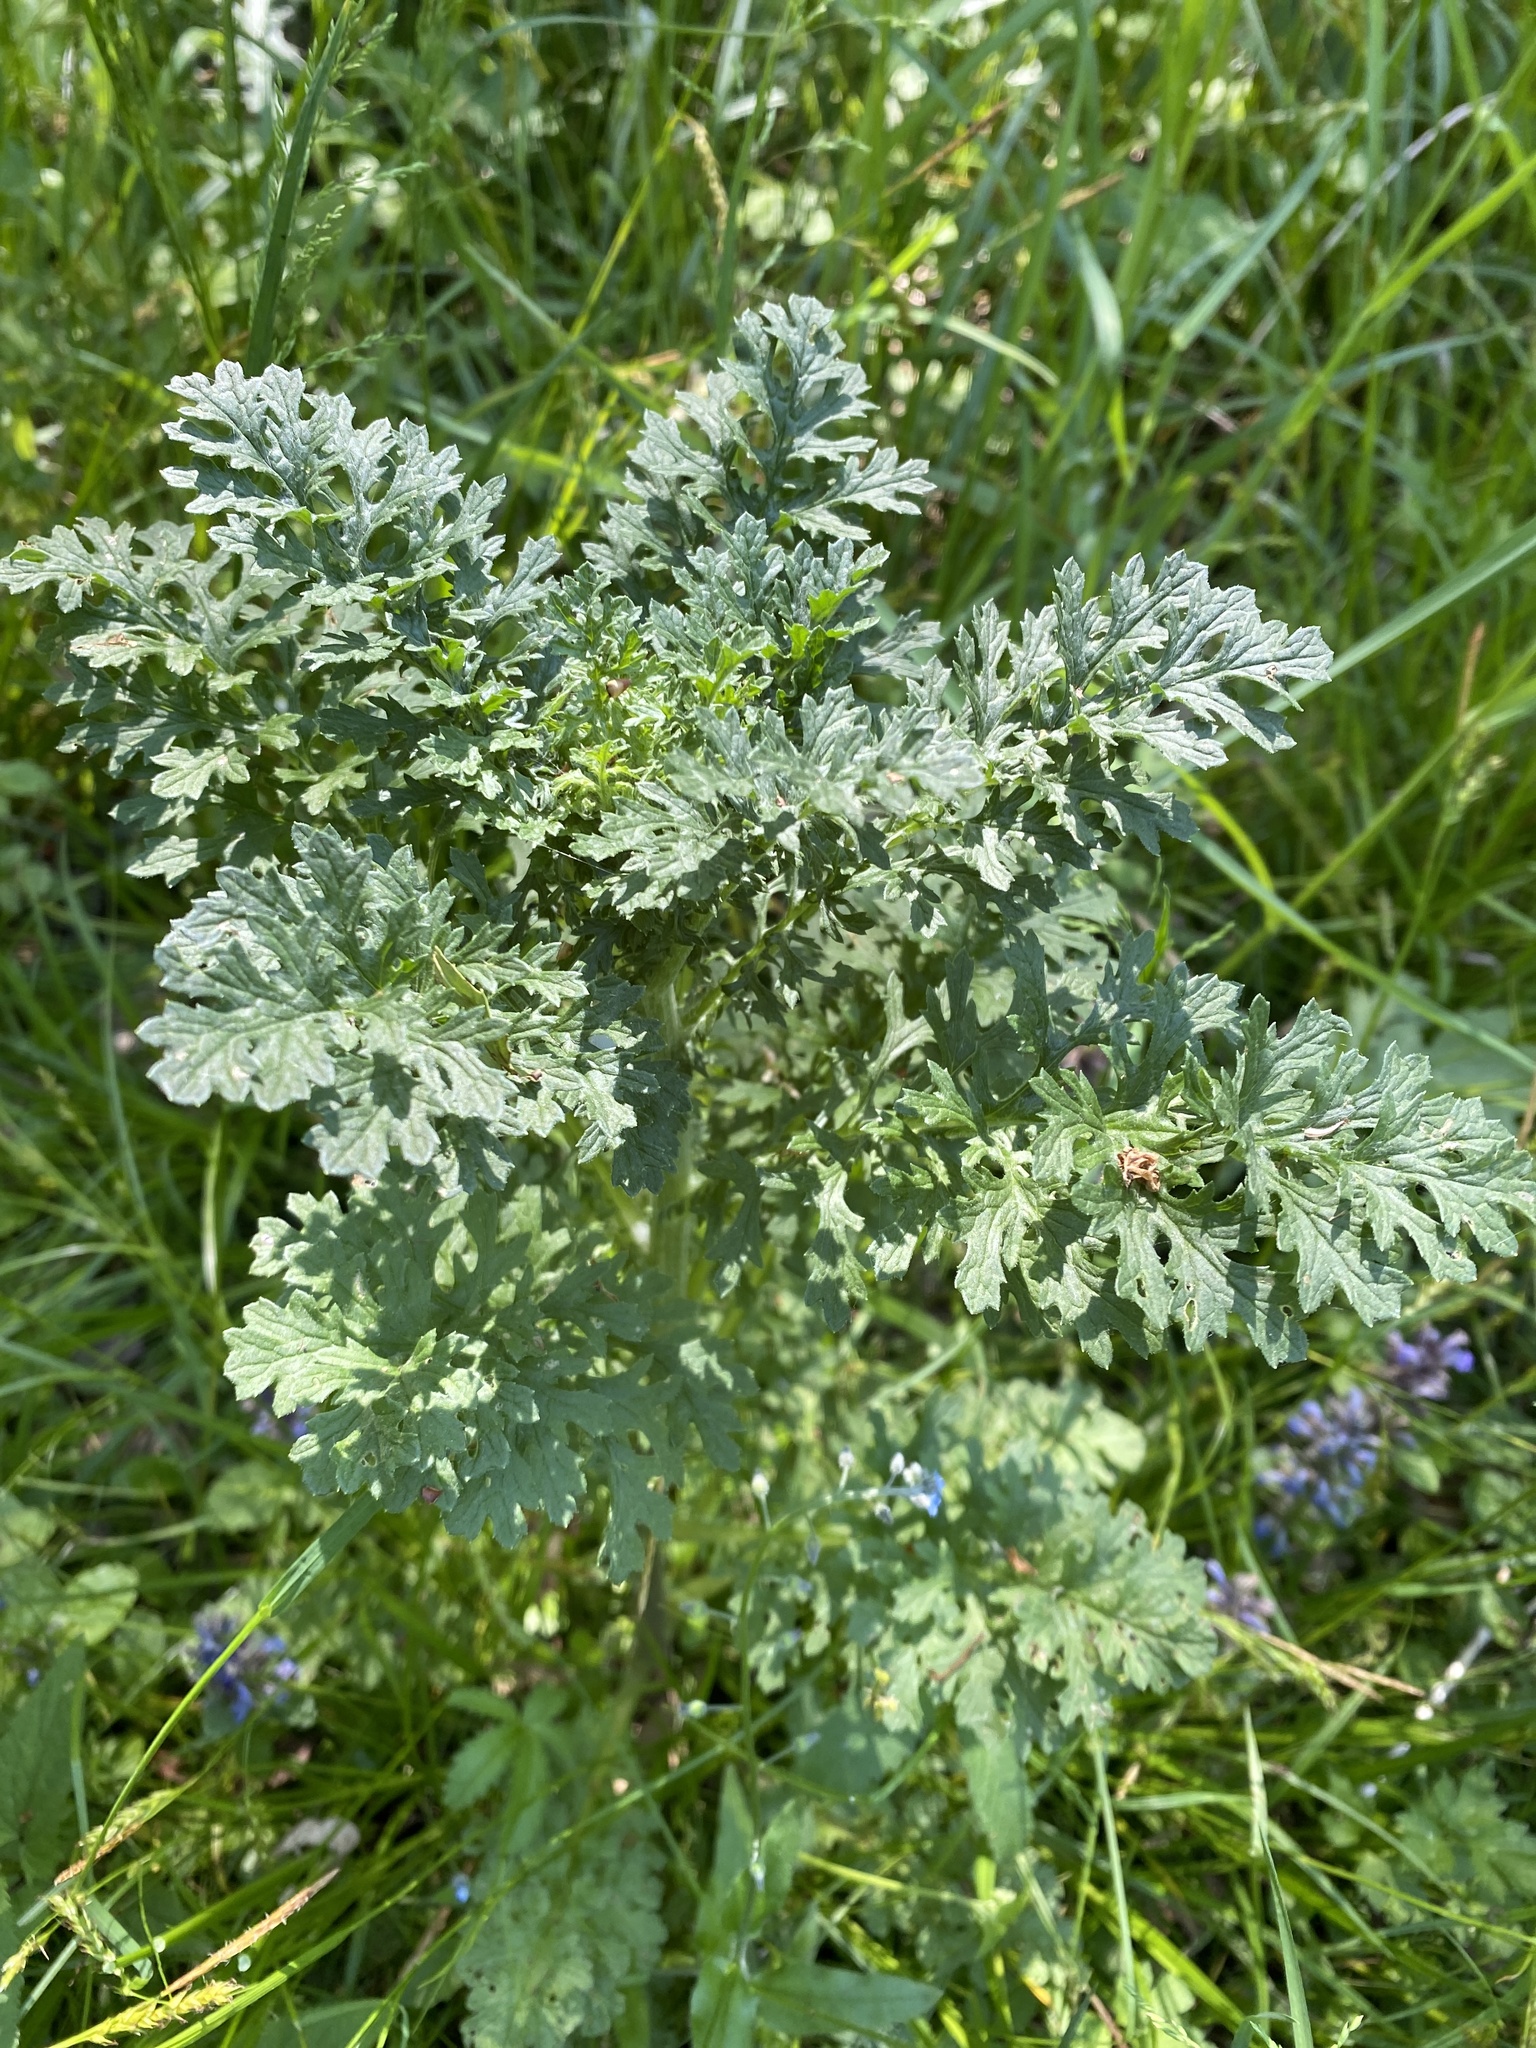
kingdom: Plantae
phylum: Tracheophyta
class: Magnoliopsida
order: Asterales
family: Asteraceae
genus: Jacobaea
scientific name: Jacobaea vulgaris
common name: Stinking willie
